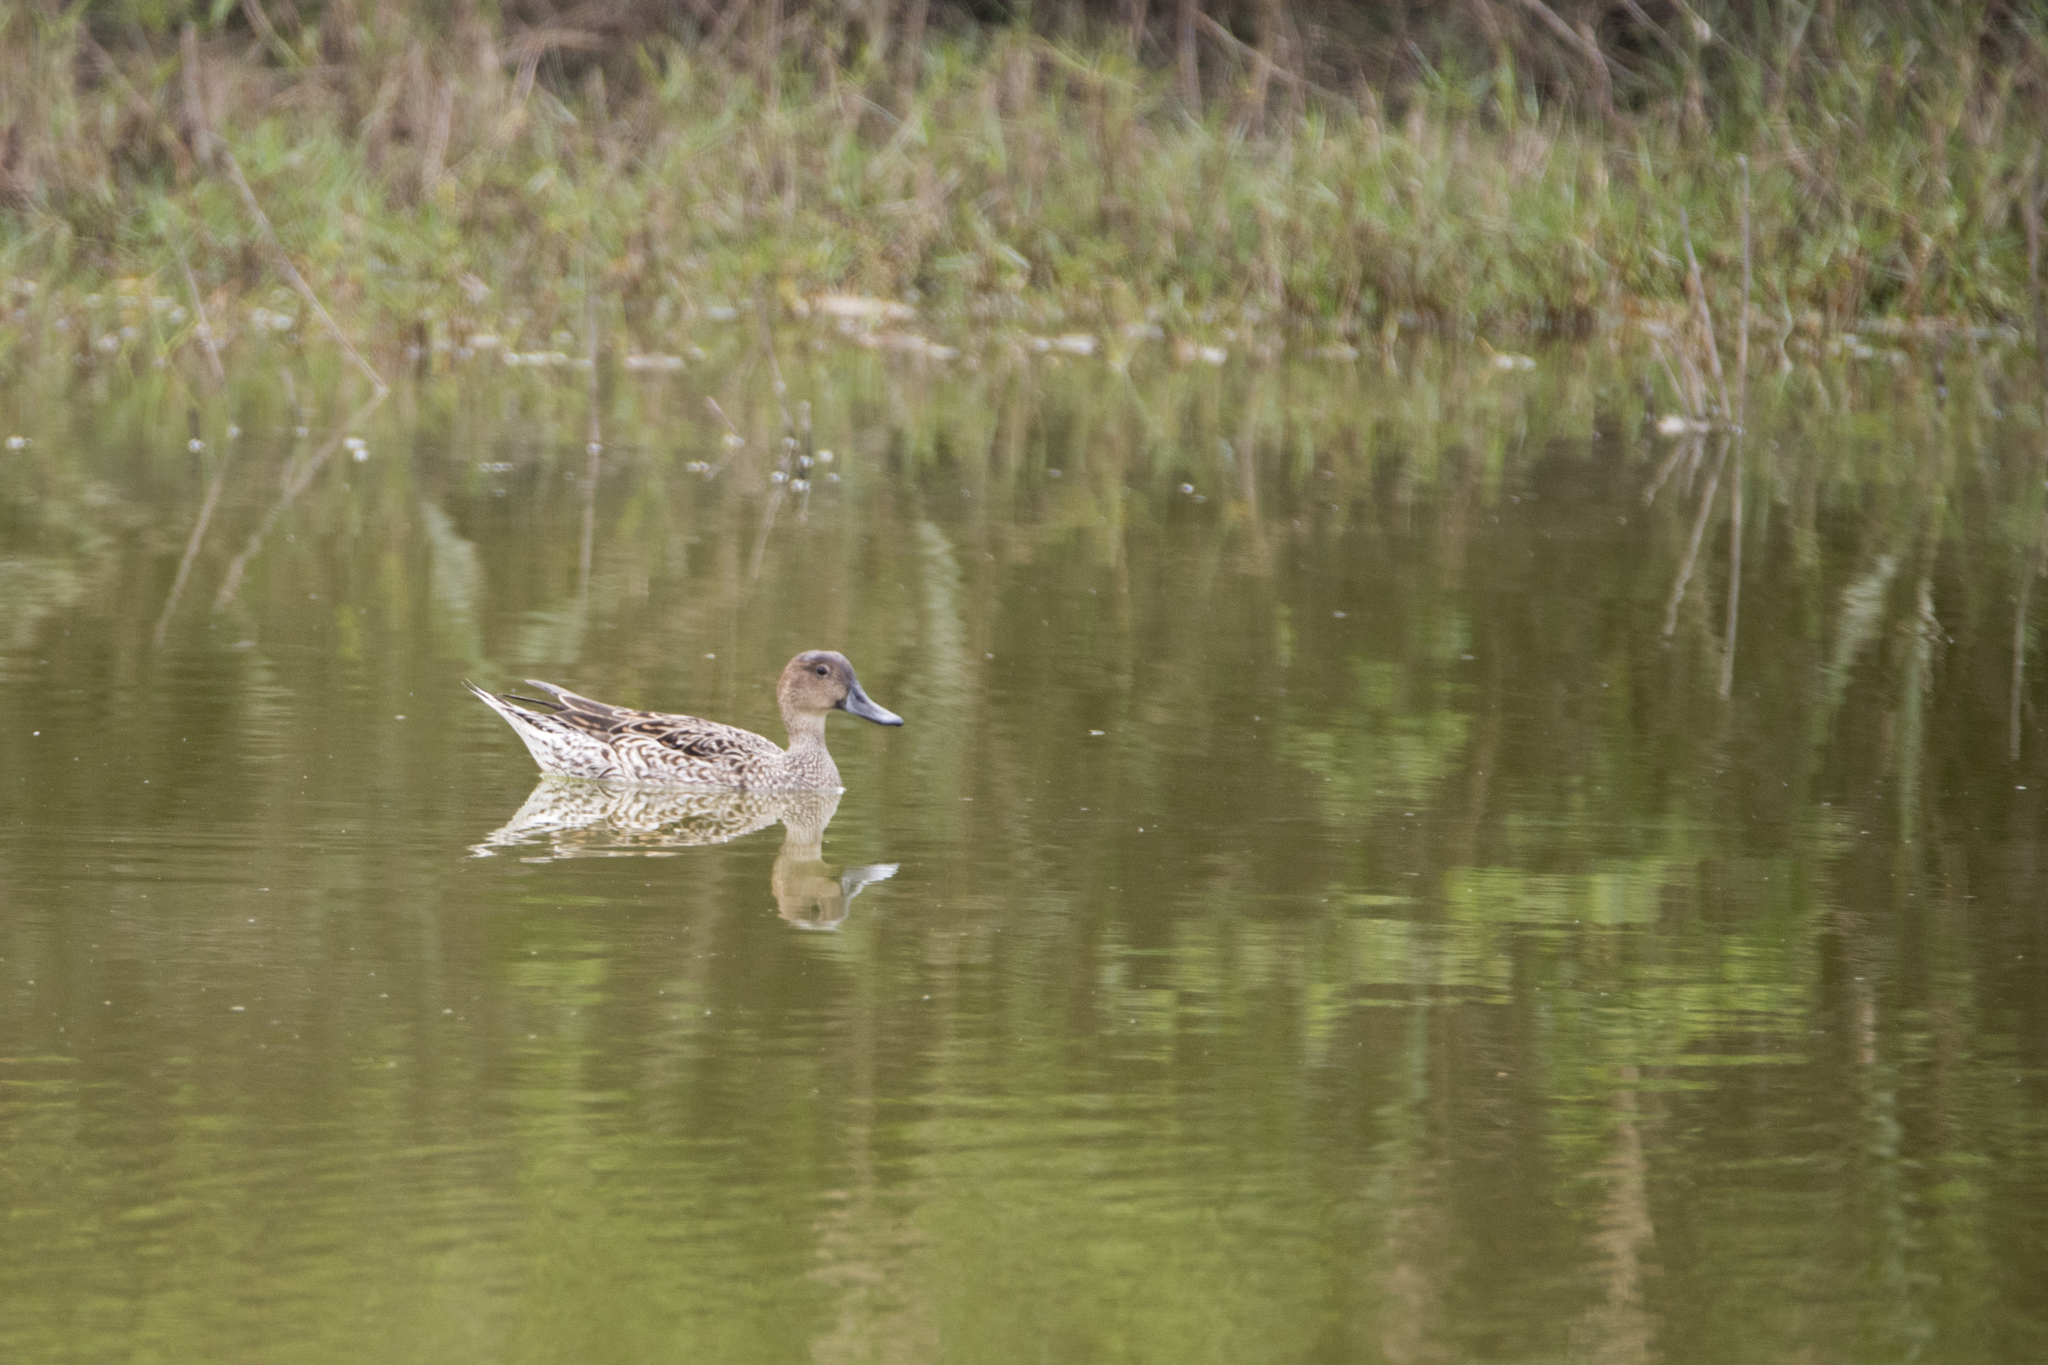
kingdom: Animalia
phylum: Chordata
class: Aves
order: Anseriformes
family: Anatidae
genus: Anas
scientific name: Anas acuta
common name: Northern pintail
